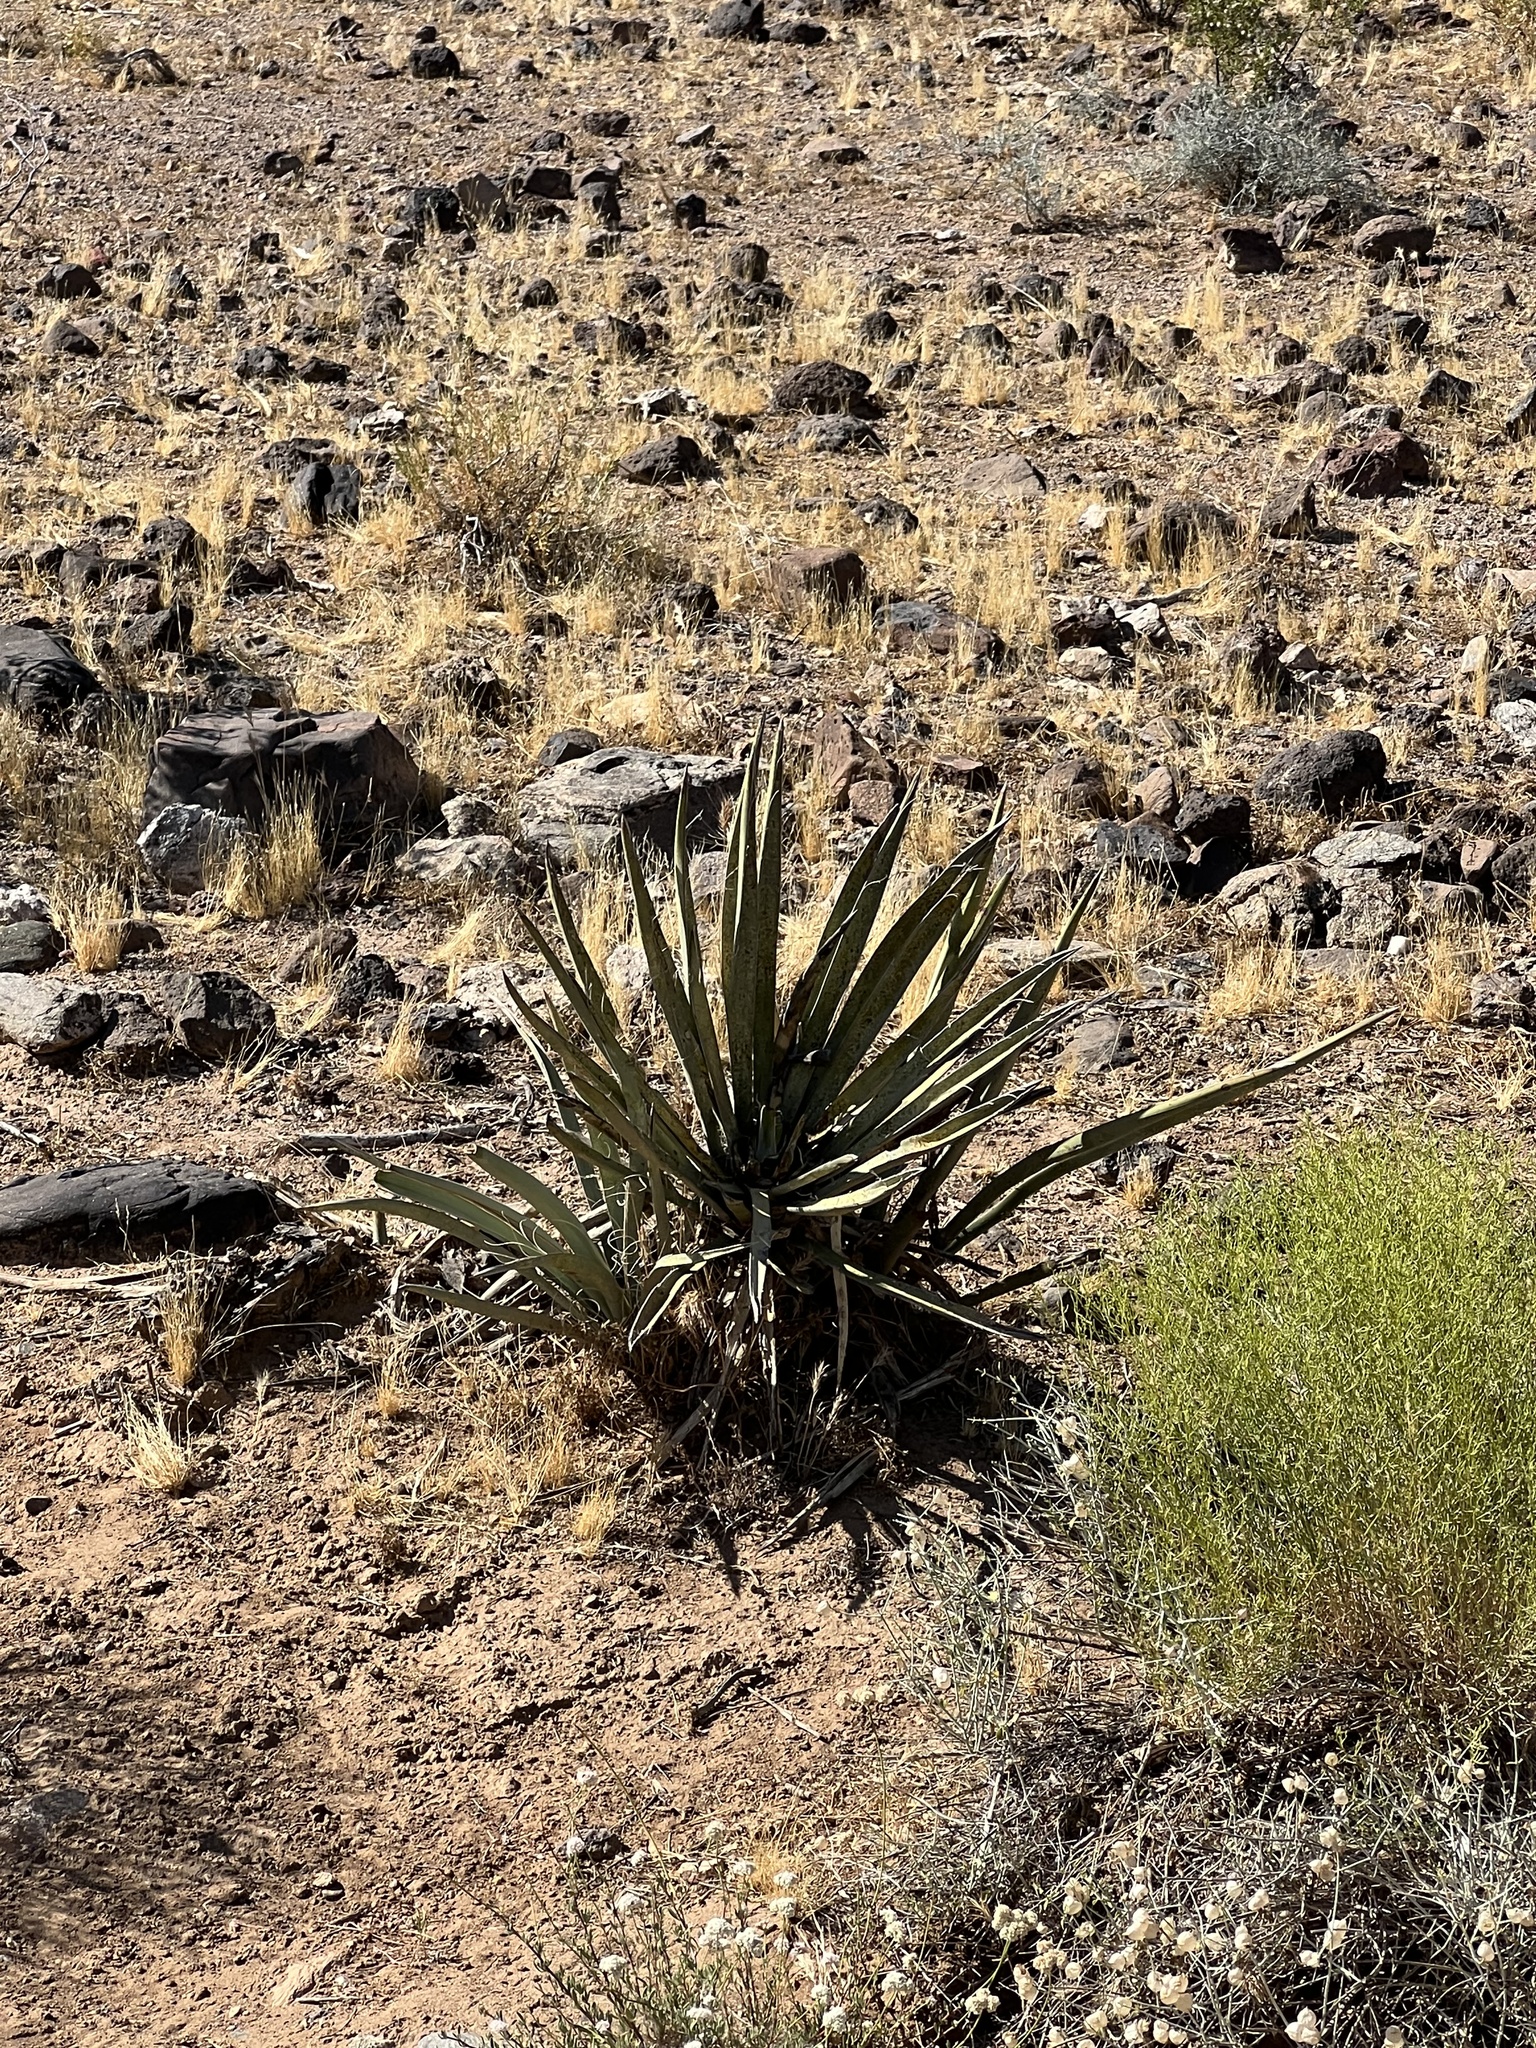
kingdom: Plantae
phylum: Tracheophyta
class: Liliopsida
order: Asparagales
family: Asparagaceae
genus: Yucca
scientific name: Yucca baccata
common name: Banana yucca
